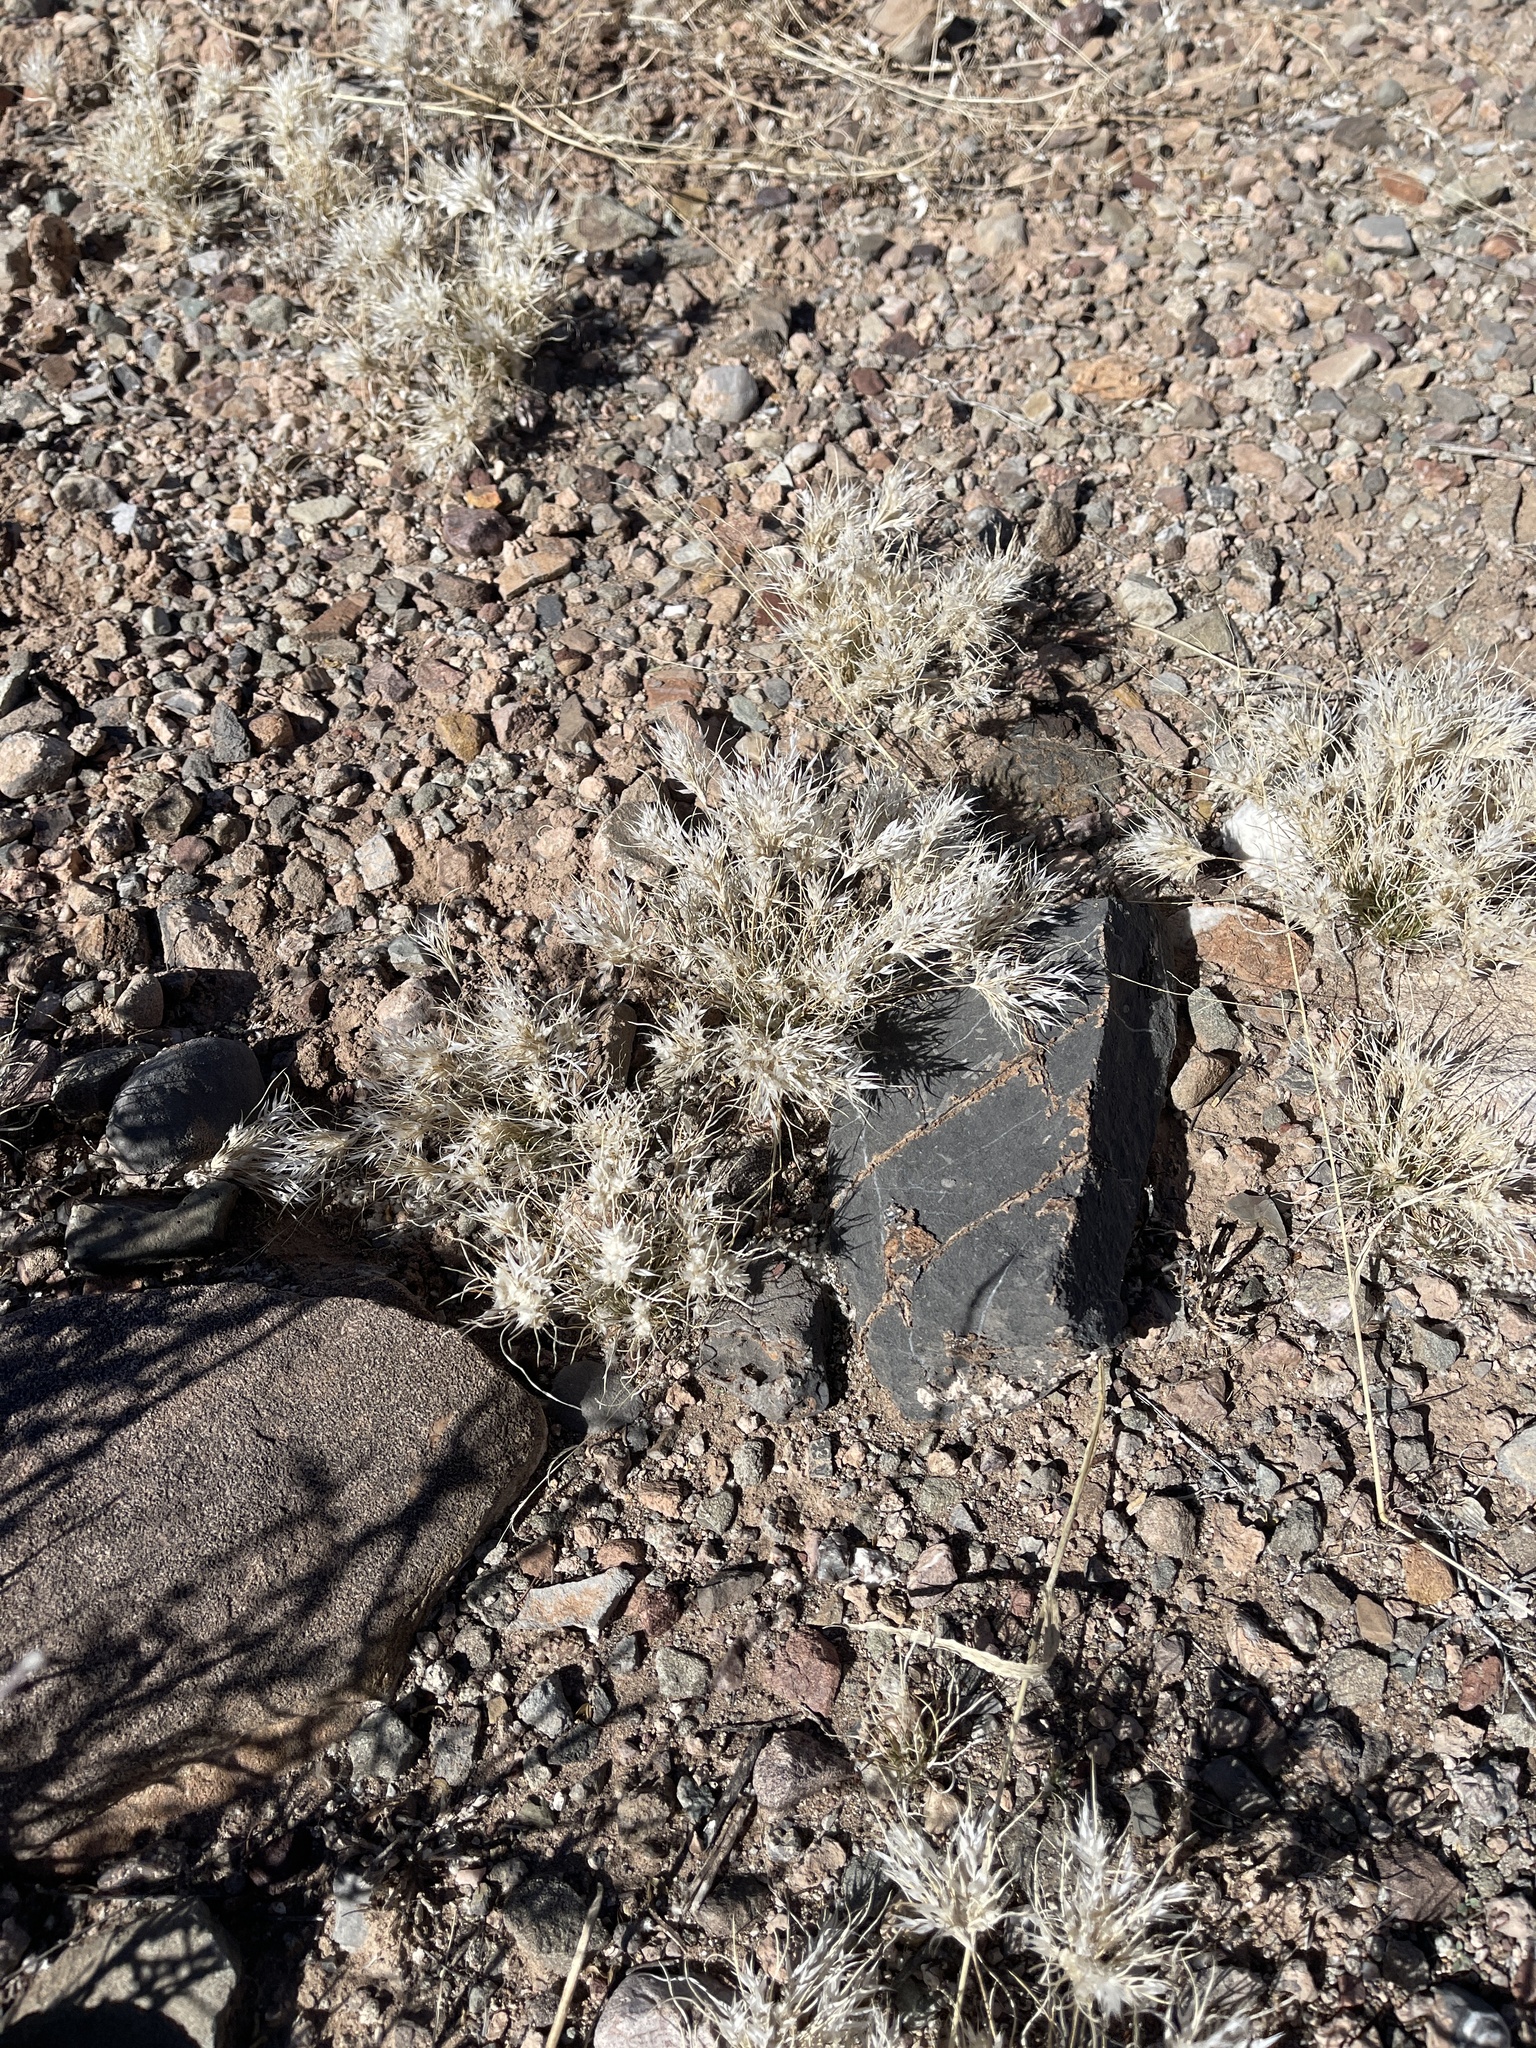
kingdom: Plantae
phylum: Tracheophyta
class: Liliopsida
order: Poales
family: Poaceae
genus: Dasyochloa
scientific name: Dasyochloa pulchella
